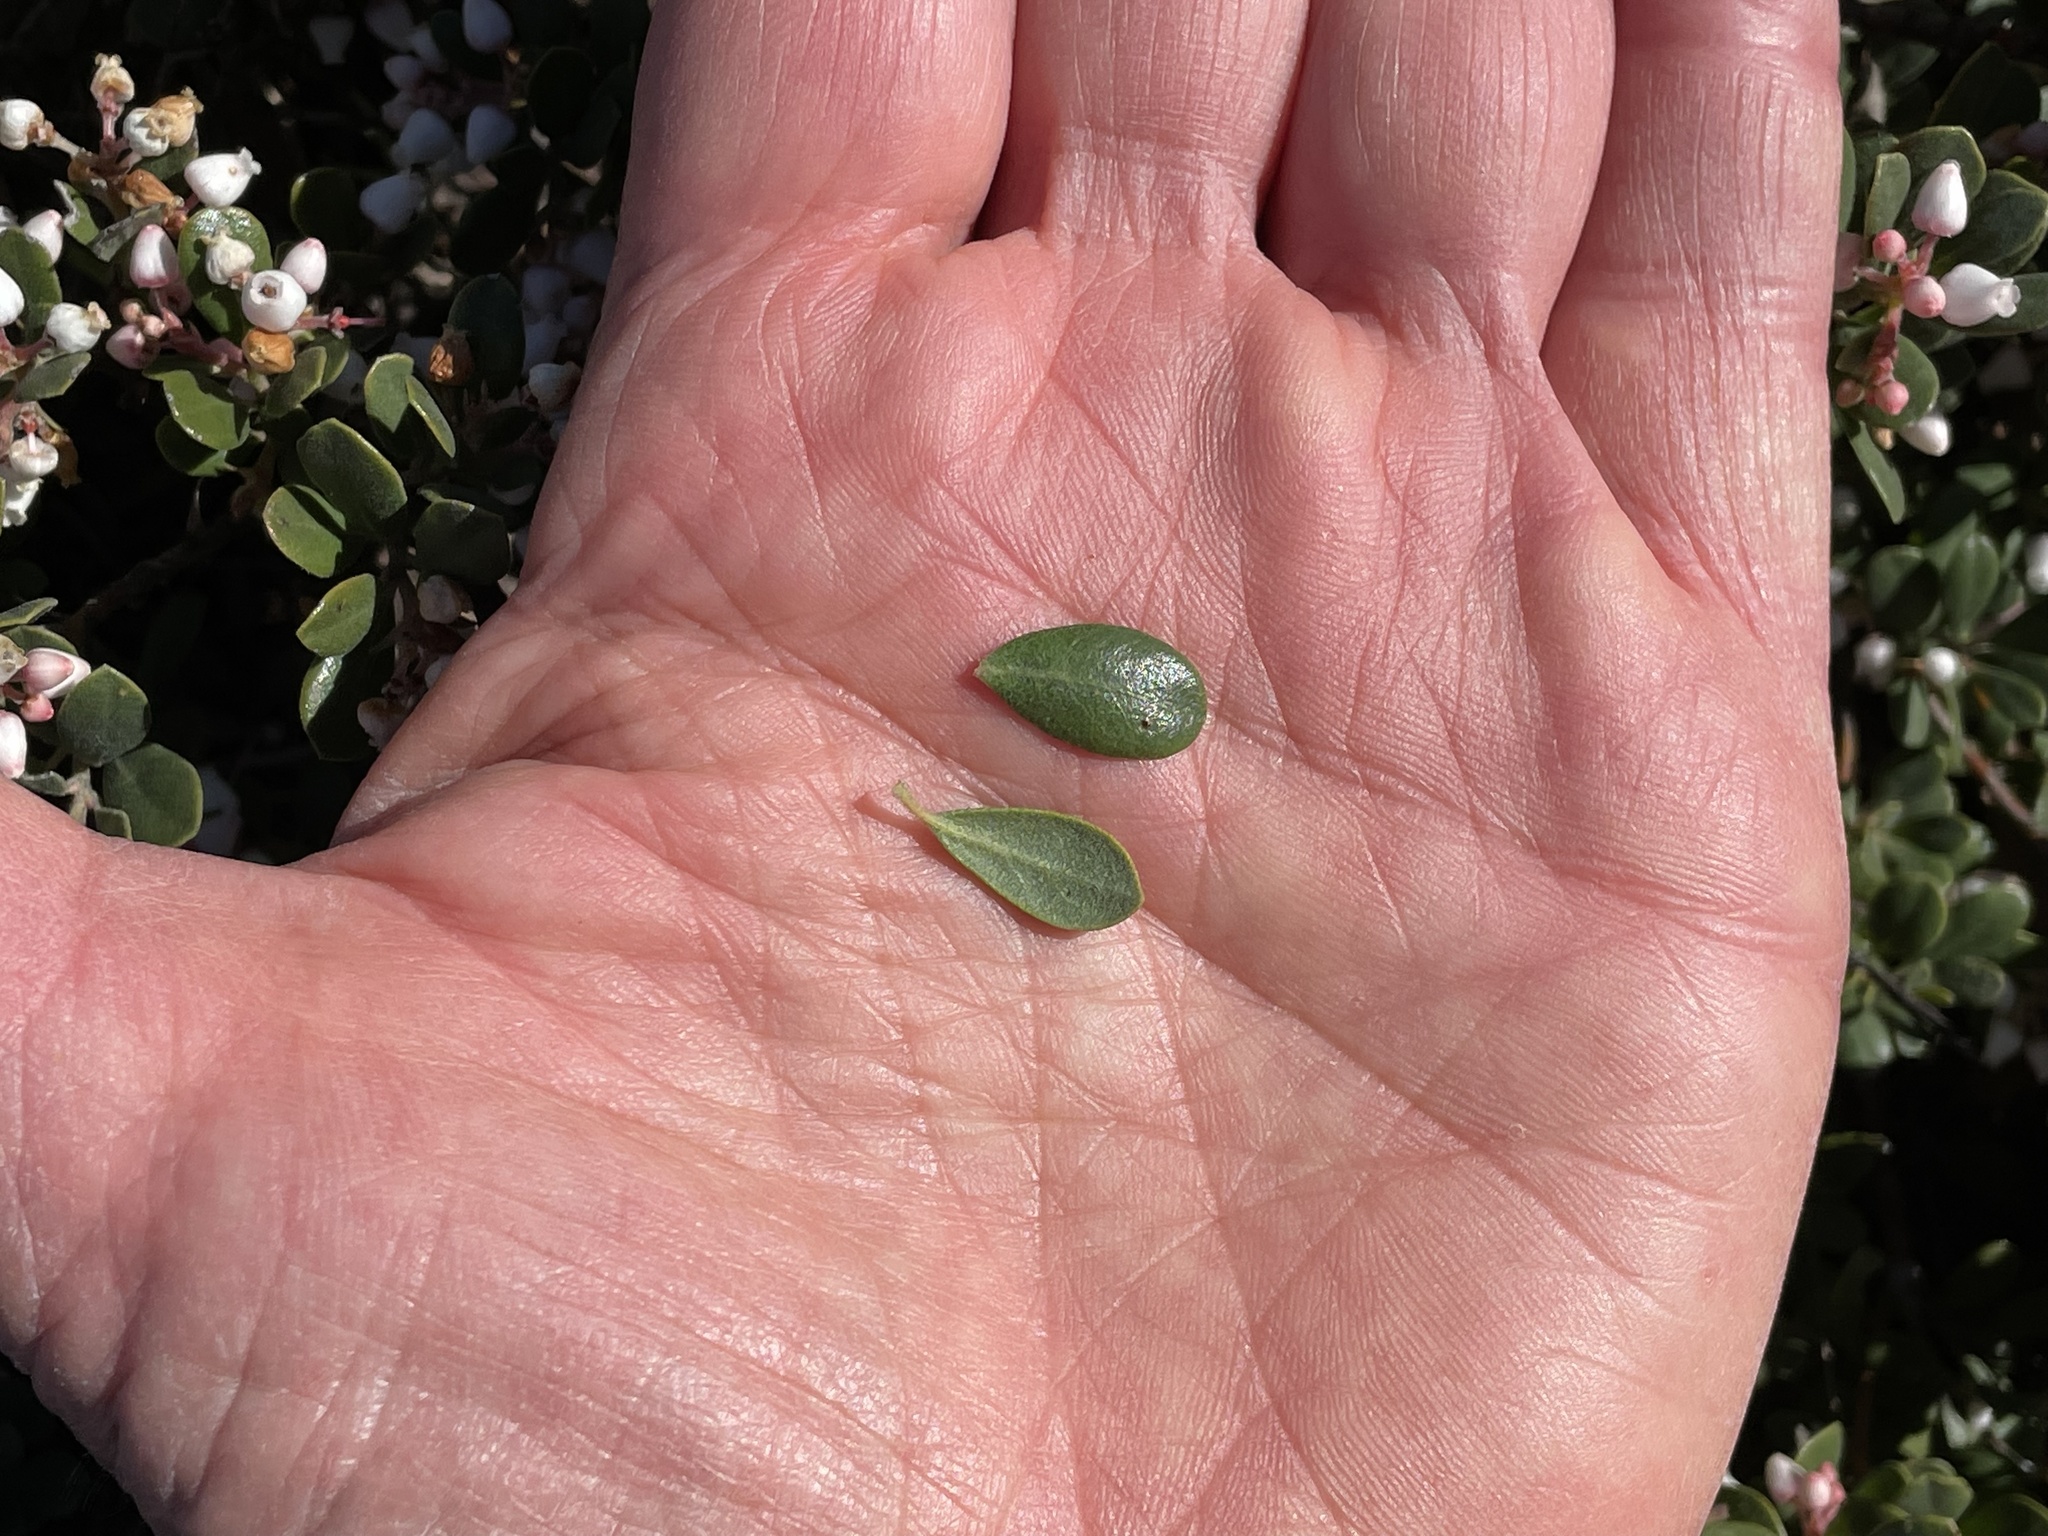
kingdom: Plantae
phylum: Tracheophyta
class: Magnoliopsida
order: Ericales
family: Ericaceae
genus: Arctostaphylos
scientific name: Arctostaphylos pumila
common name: Sandmat manzanita
